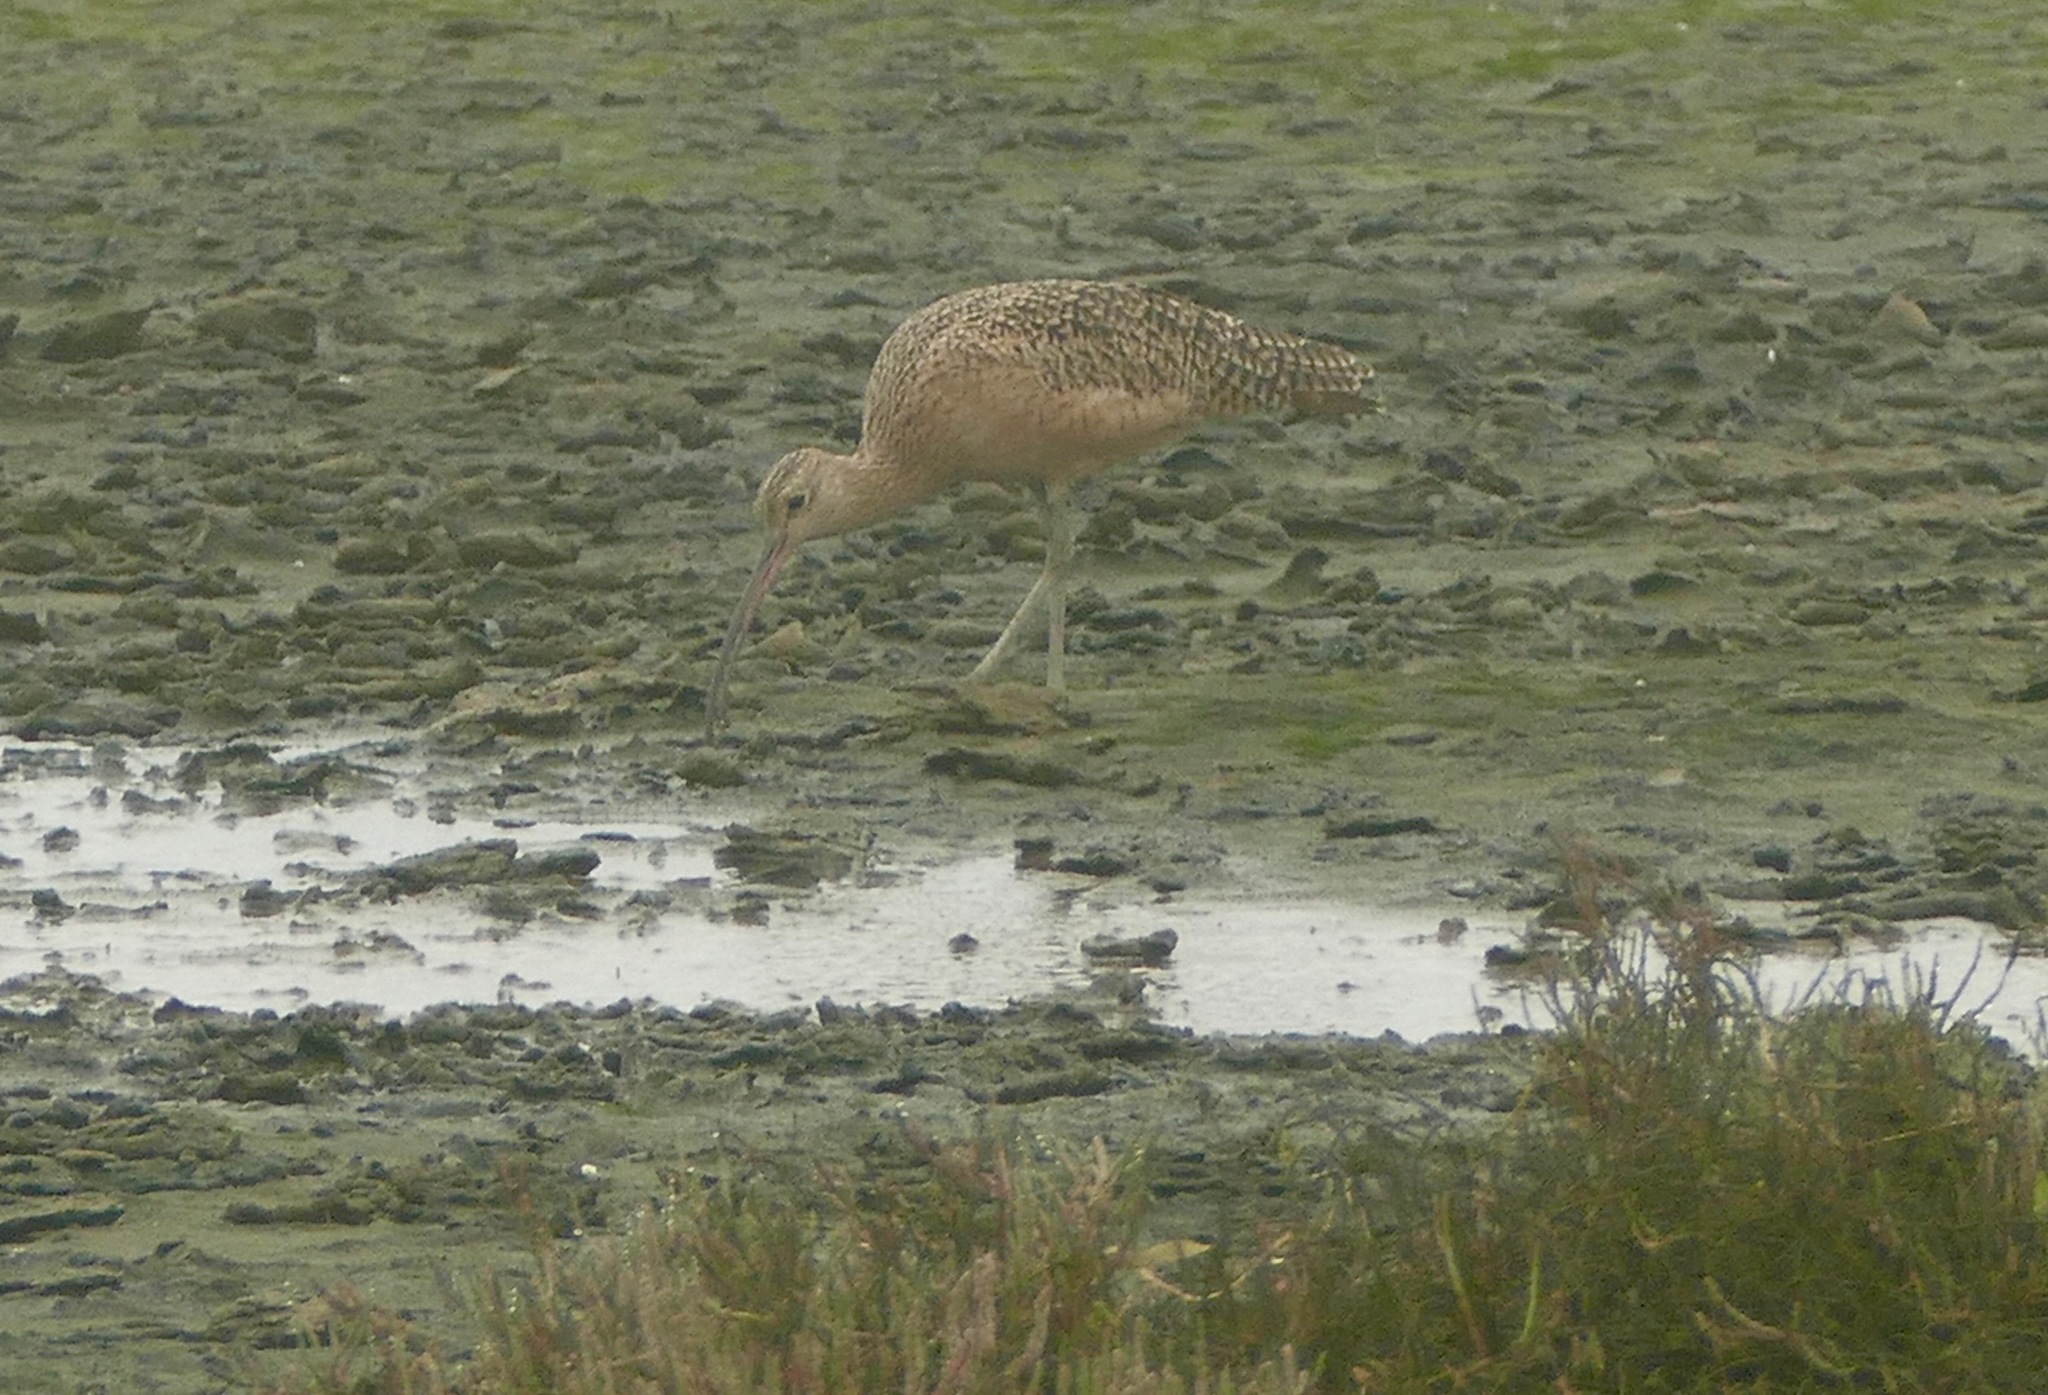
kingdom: Animalia
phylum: Chordata
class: Aves
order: Charadriiformes
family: Scolopacidae
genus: Numenius
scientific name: Numenius americanus
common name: Long-billed curlew
